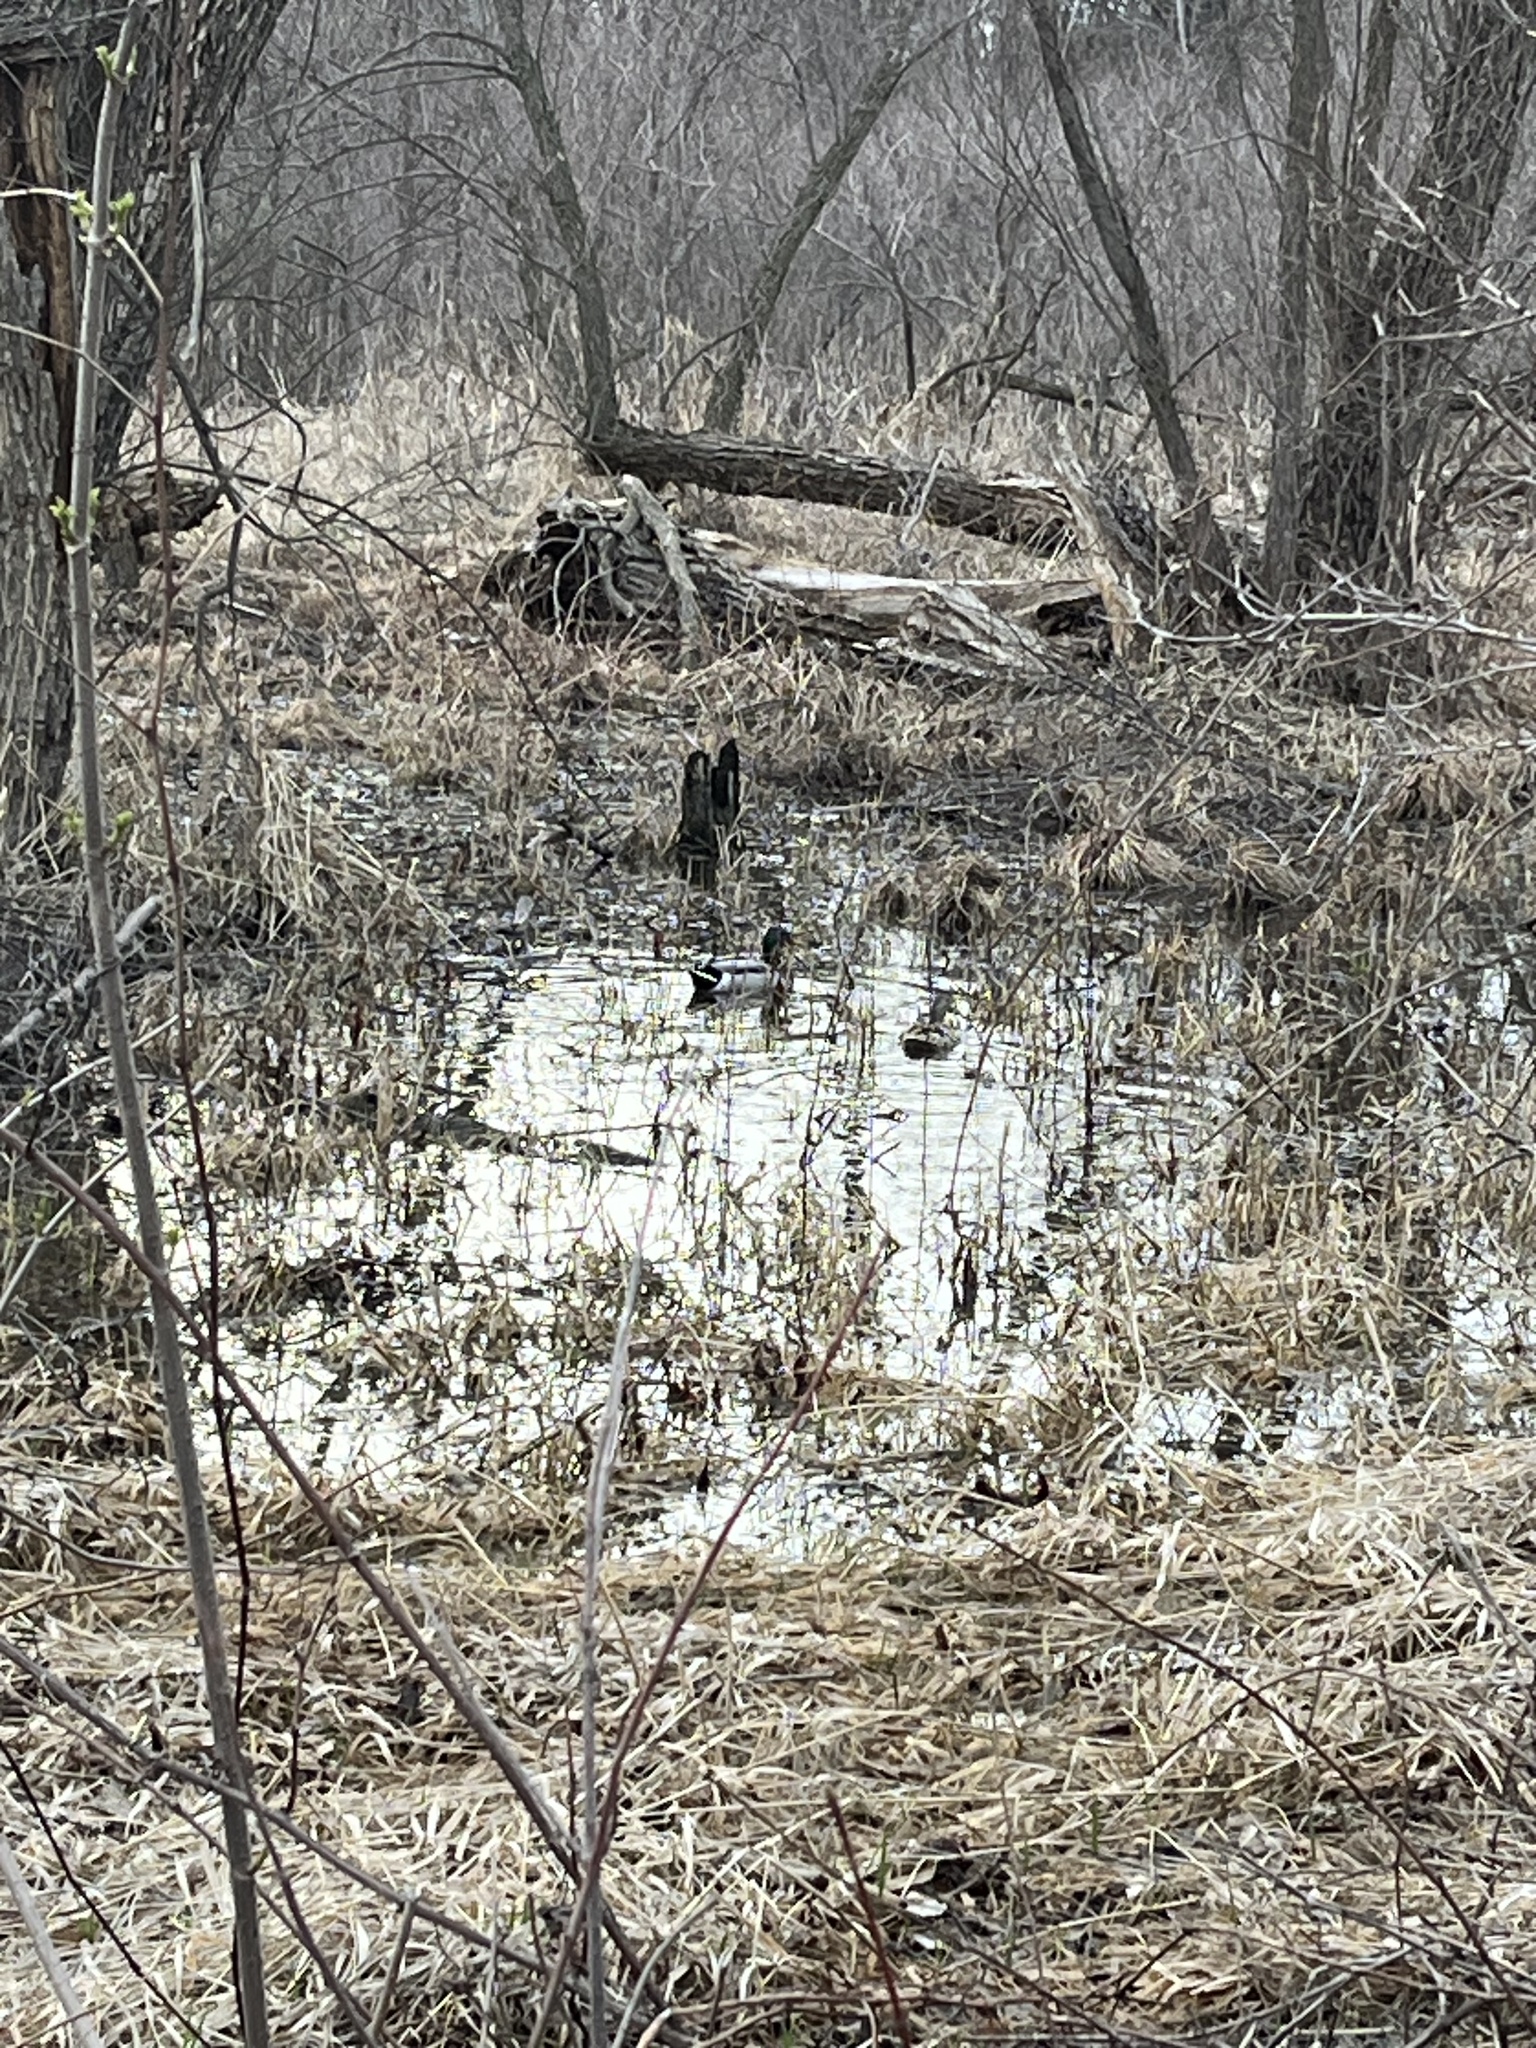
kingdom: Animalia
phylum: Chordata
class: Aves
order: Anseriformes
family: Anatidae
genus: Anas
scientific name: Anas platyrhynchos
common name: Mallard
